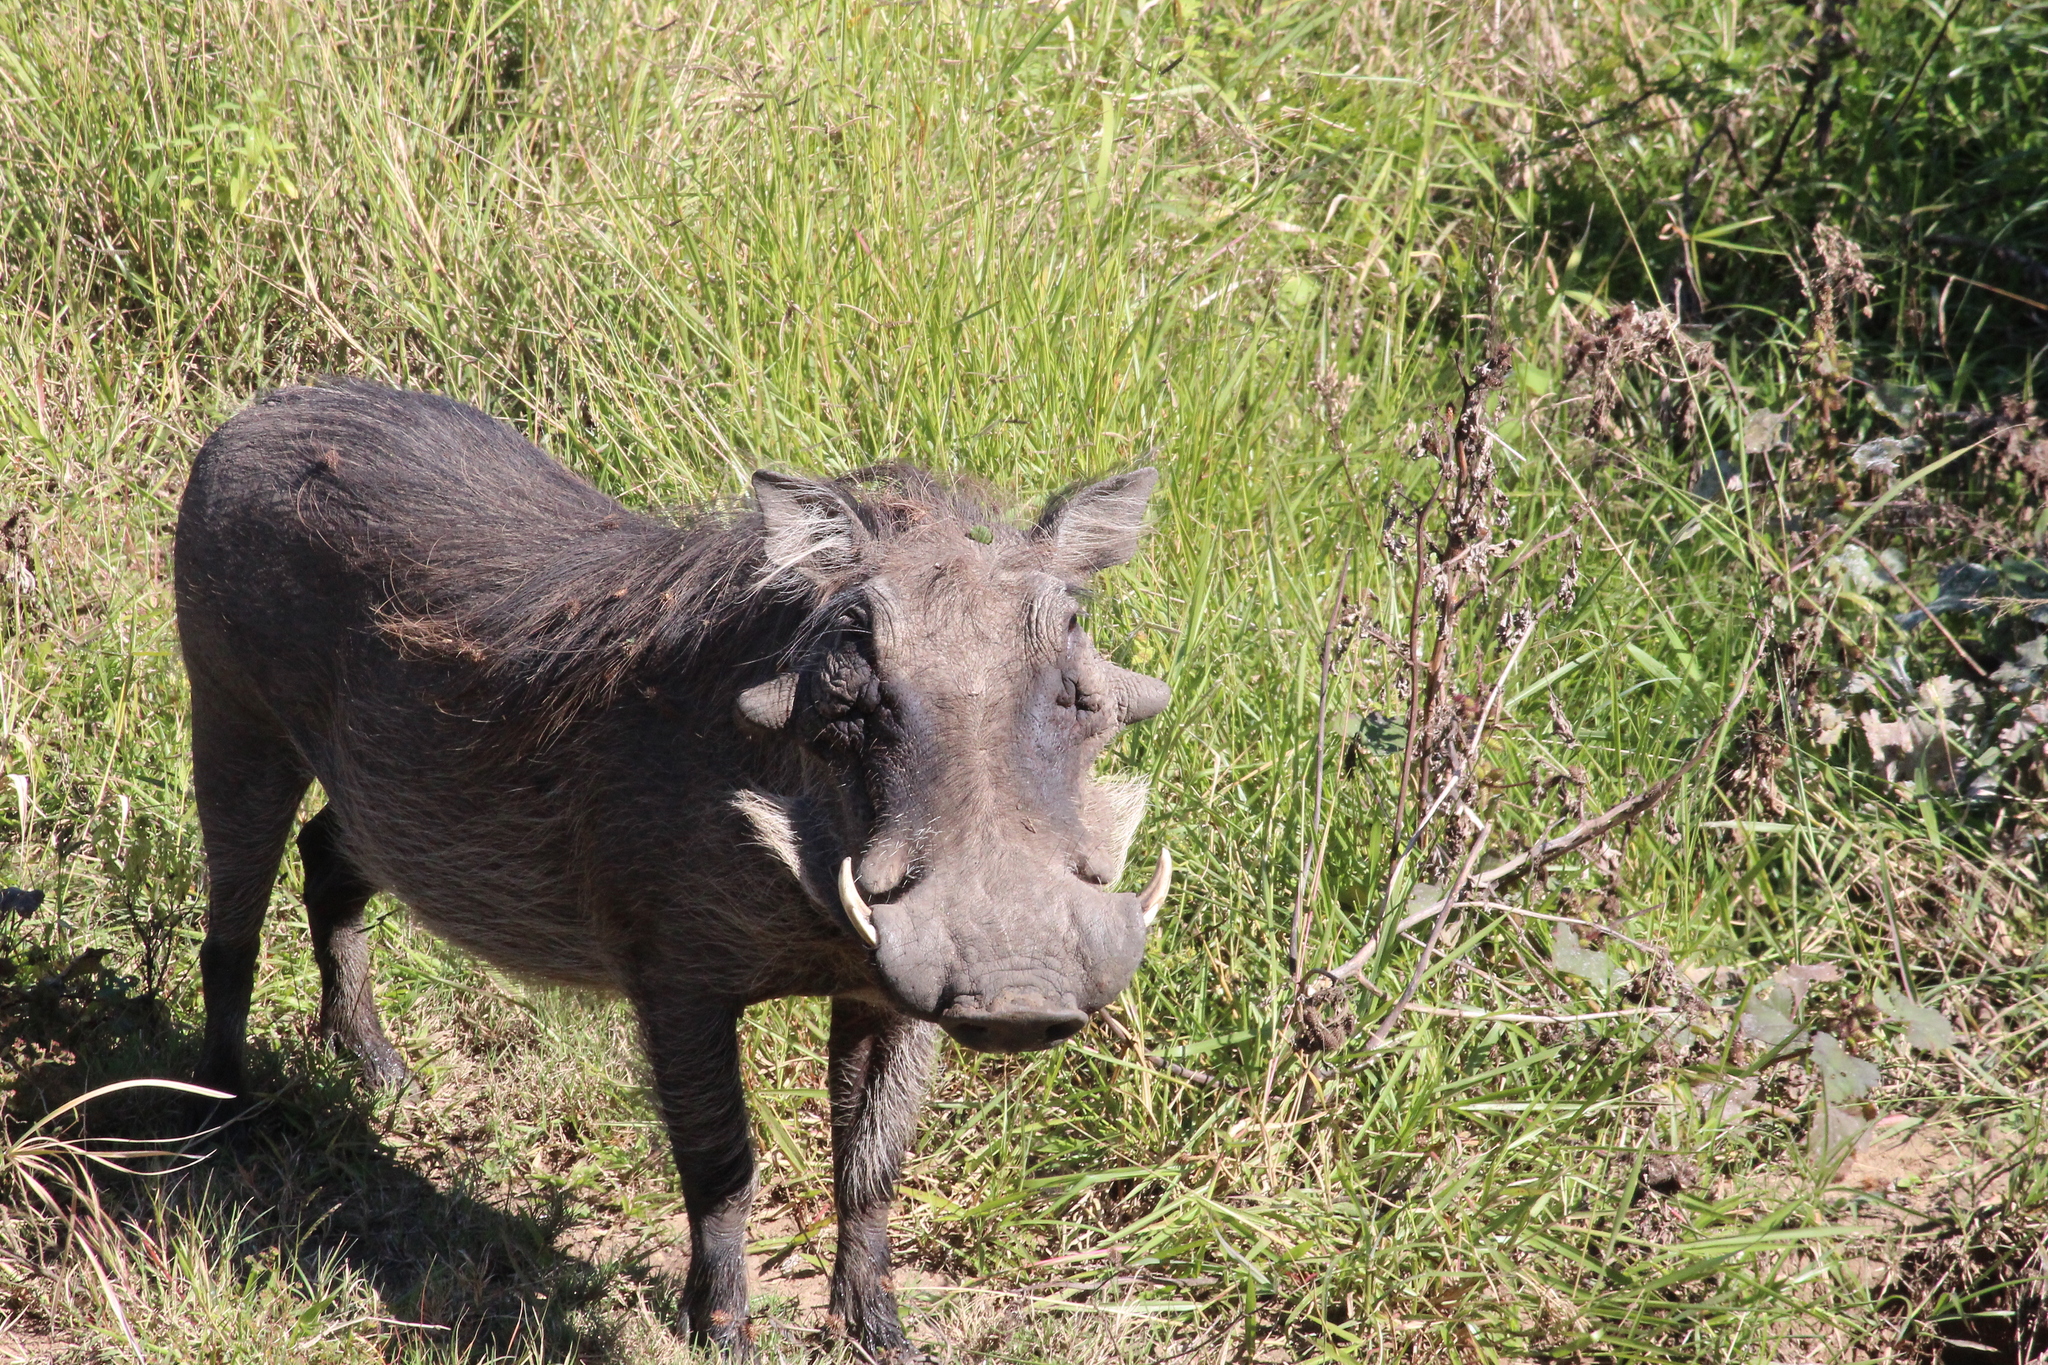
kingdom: Animalia
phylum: Chordata
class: Mammalia
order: Artiodactyla
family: Suidae
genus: Phacochoerus
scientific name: Phacochoerus africanus
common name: Common warthog
